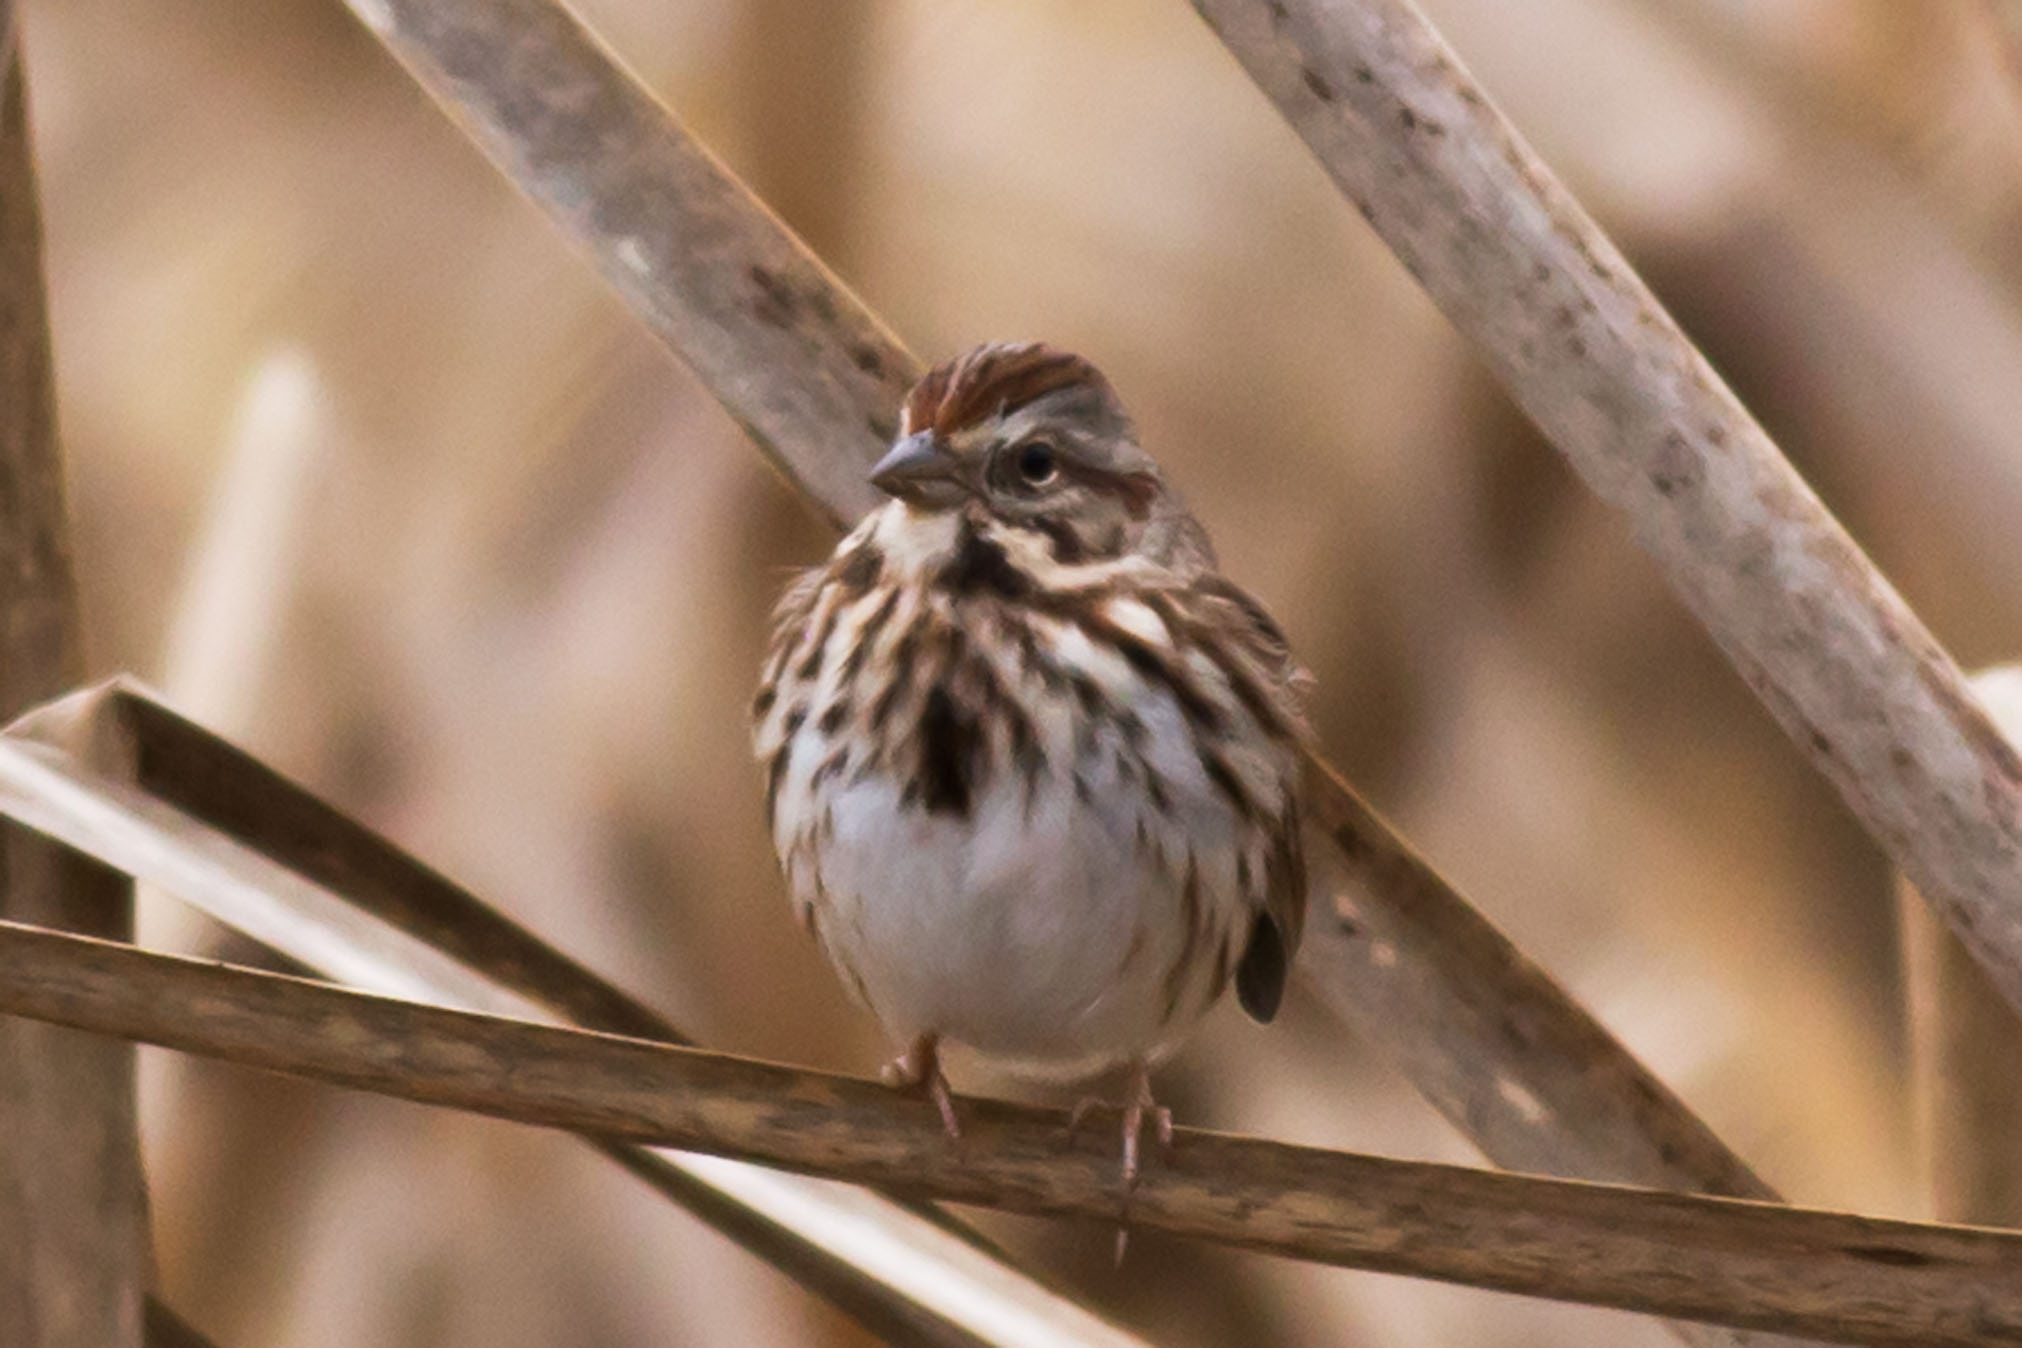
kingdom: Animalia
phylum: Chordata
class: Aves
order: Passeriformes
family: Passerellidae
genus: Melospiza
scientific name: Melospiza melodia
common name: Song sparrow
